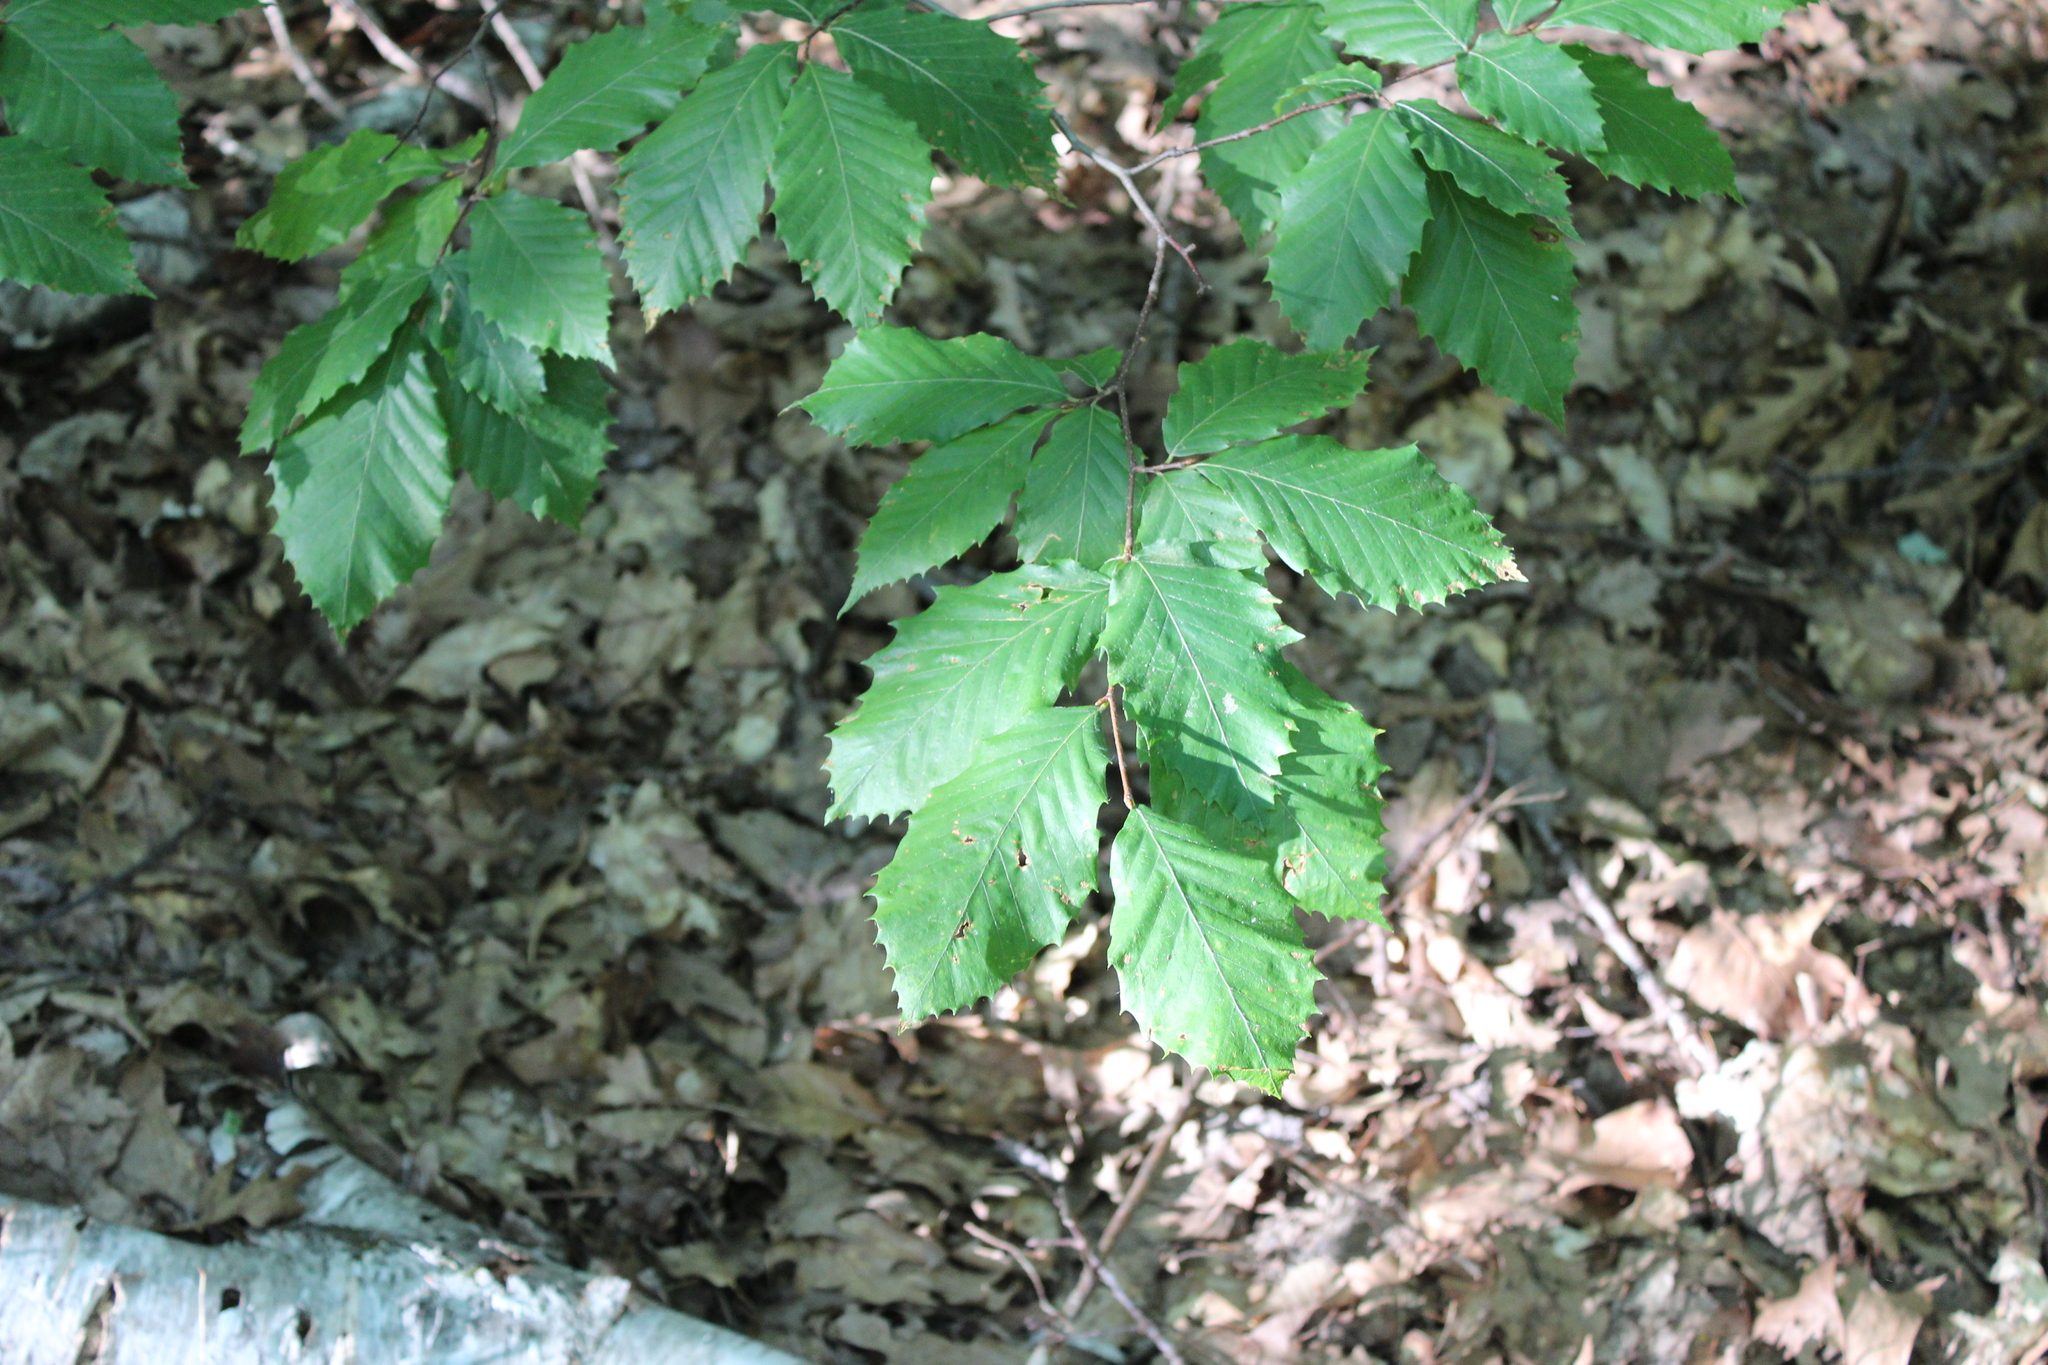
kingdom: Plantae
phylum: Tracheophyta
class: Magnoliopsida
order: Fagales
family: Fagaceae
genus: Fagus
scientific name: Fagus grandifolia
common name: American beech
